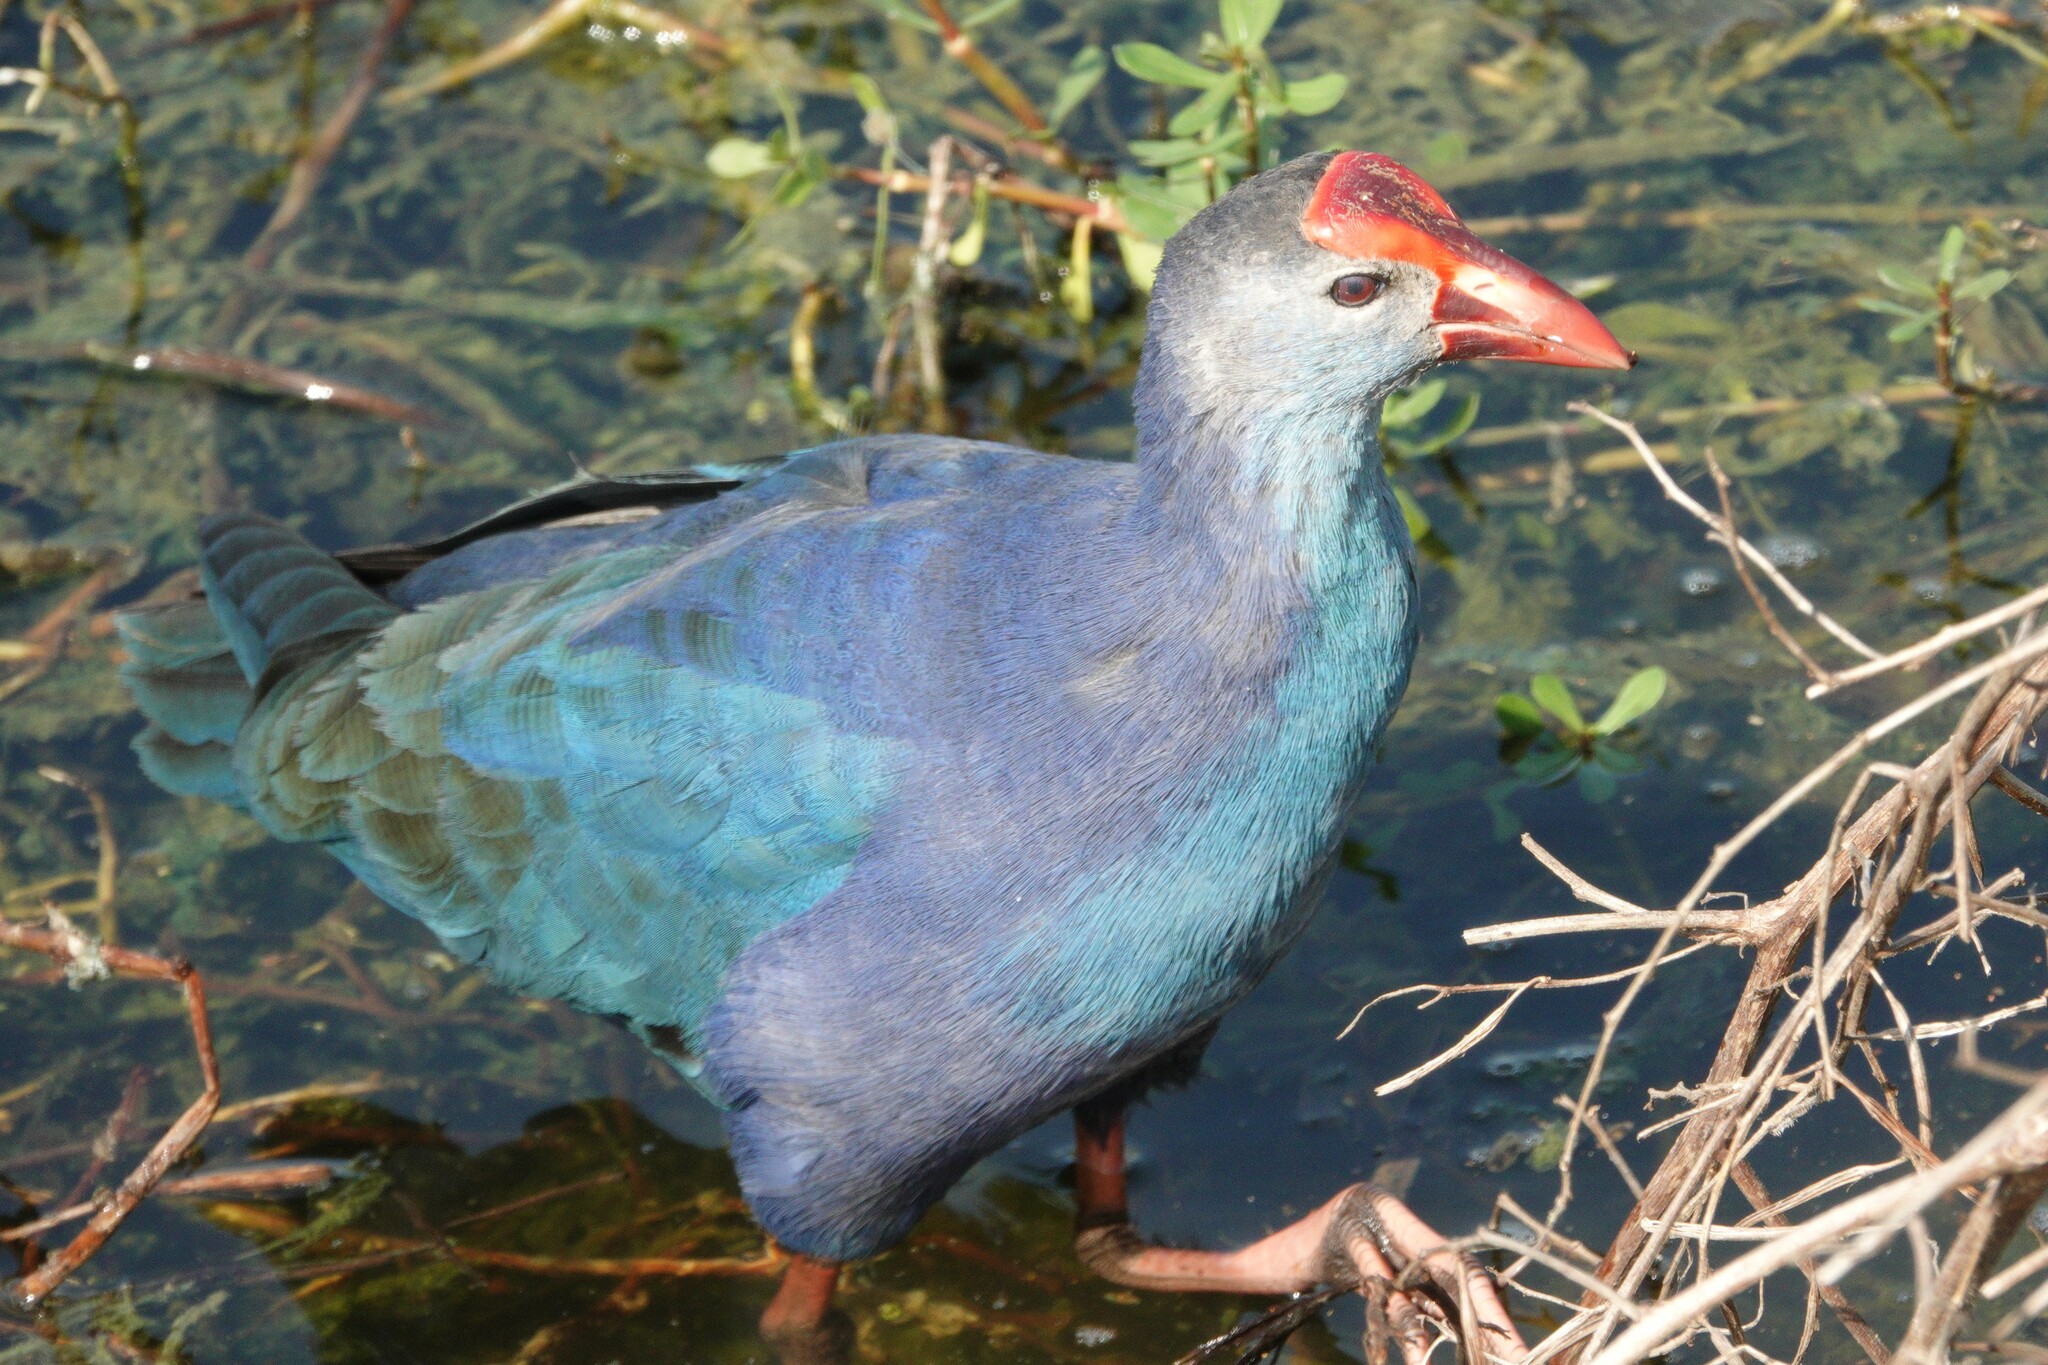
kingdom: Animalia
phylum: Chordata
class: Aves
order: Gruiformes
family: Rallidae
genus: Porphyrio
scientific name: Porphyrio porphyrio
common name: Purple swamphen
